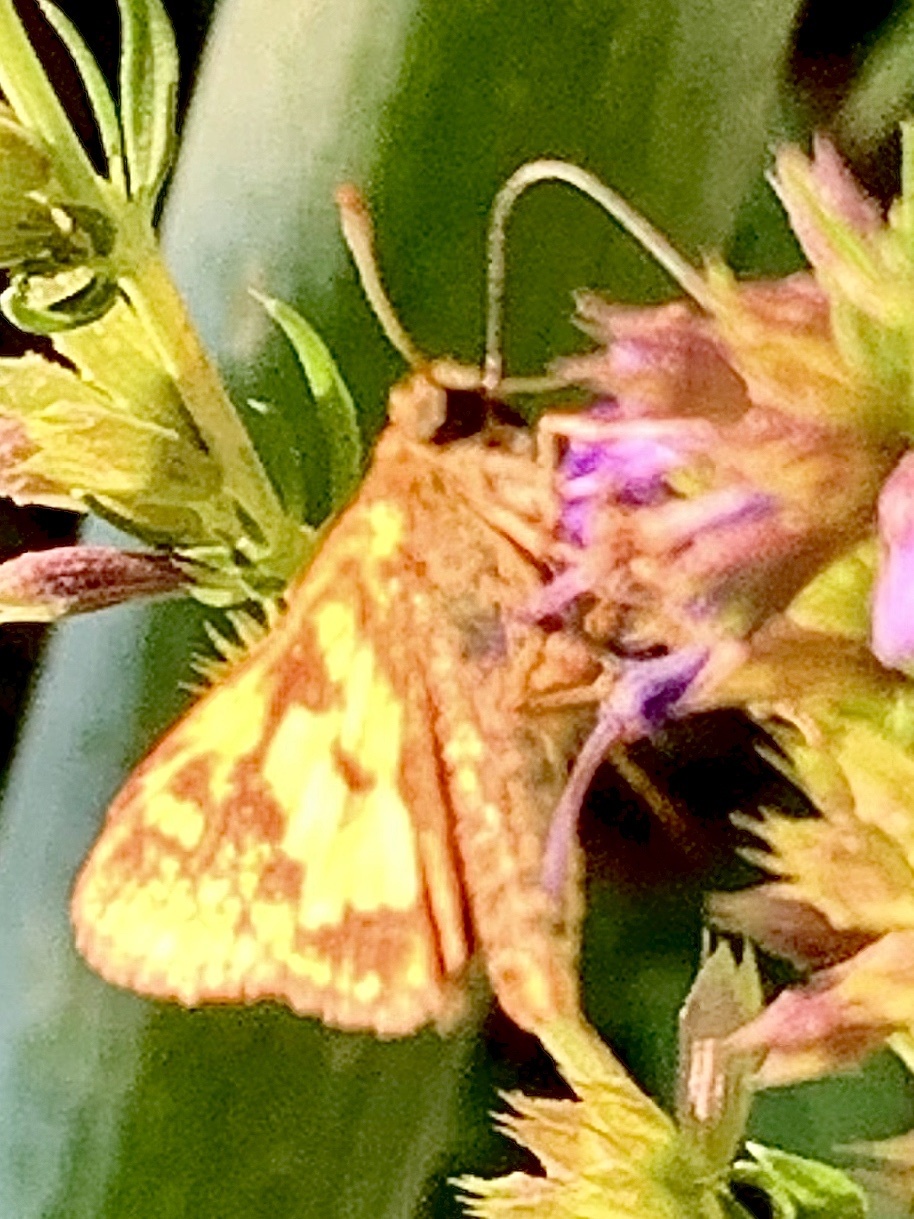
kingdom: Animalia
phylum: Arthropoda
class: Insecta
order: Lepidoptera
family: Hesperiidae
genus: Polites
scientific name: Polites coras
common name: Peck's skipper
